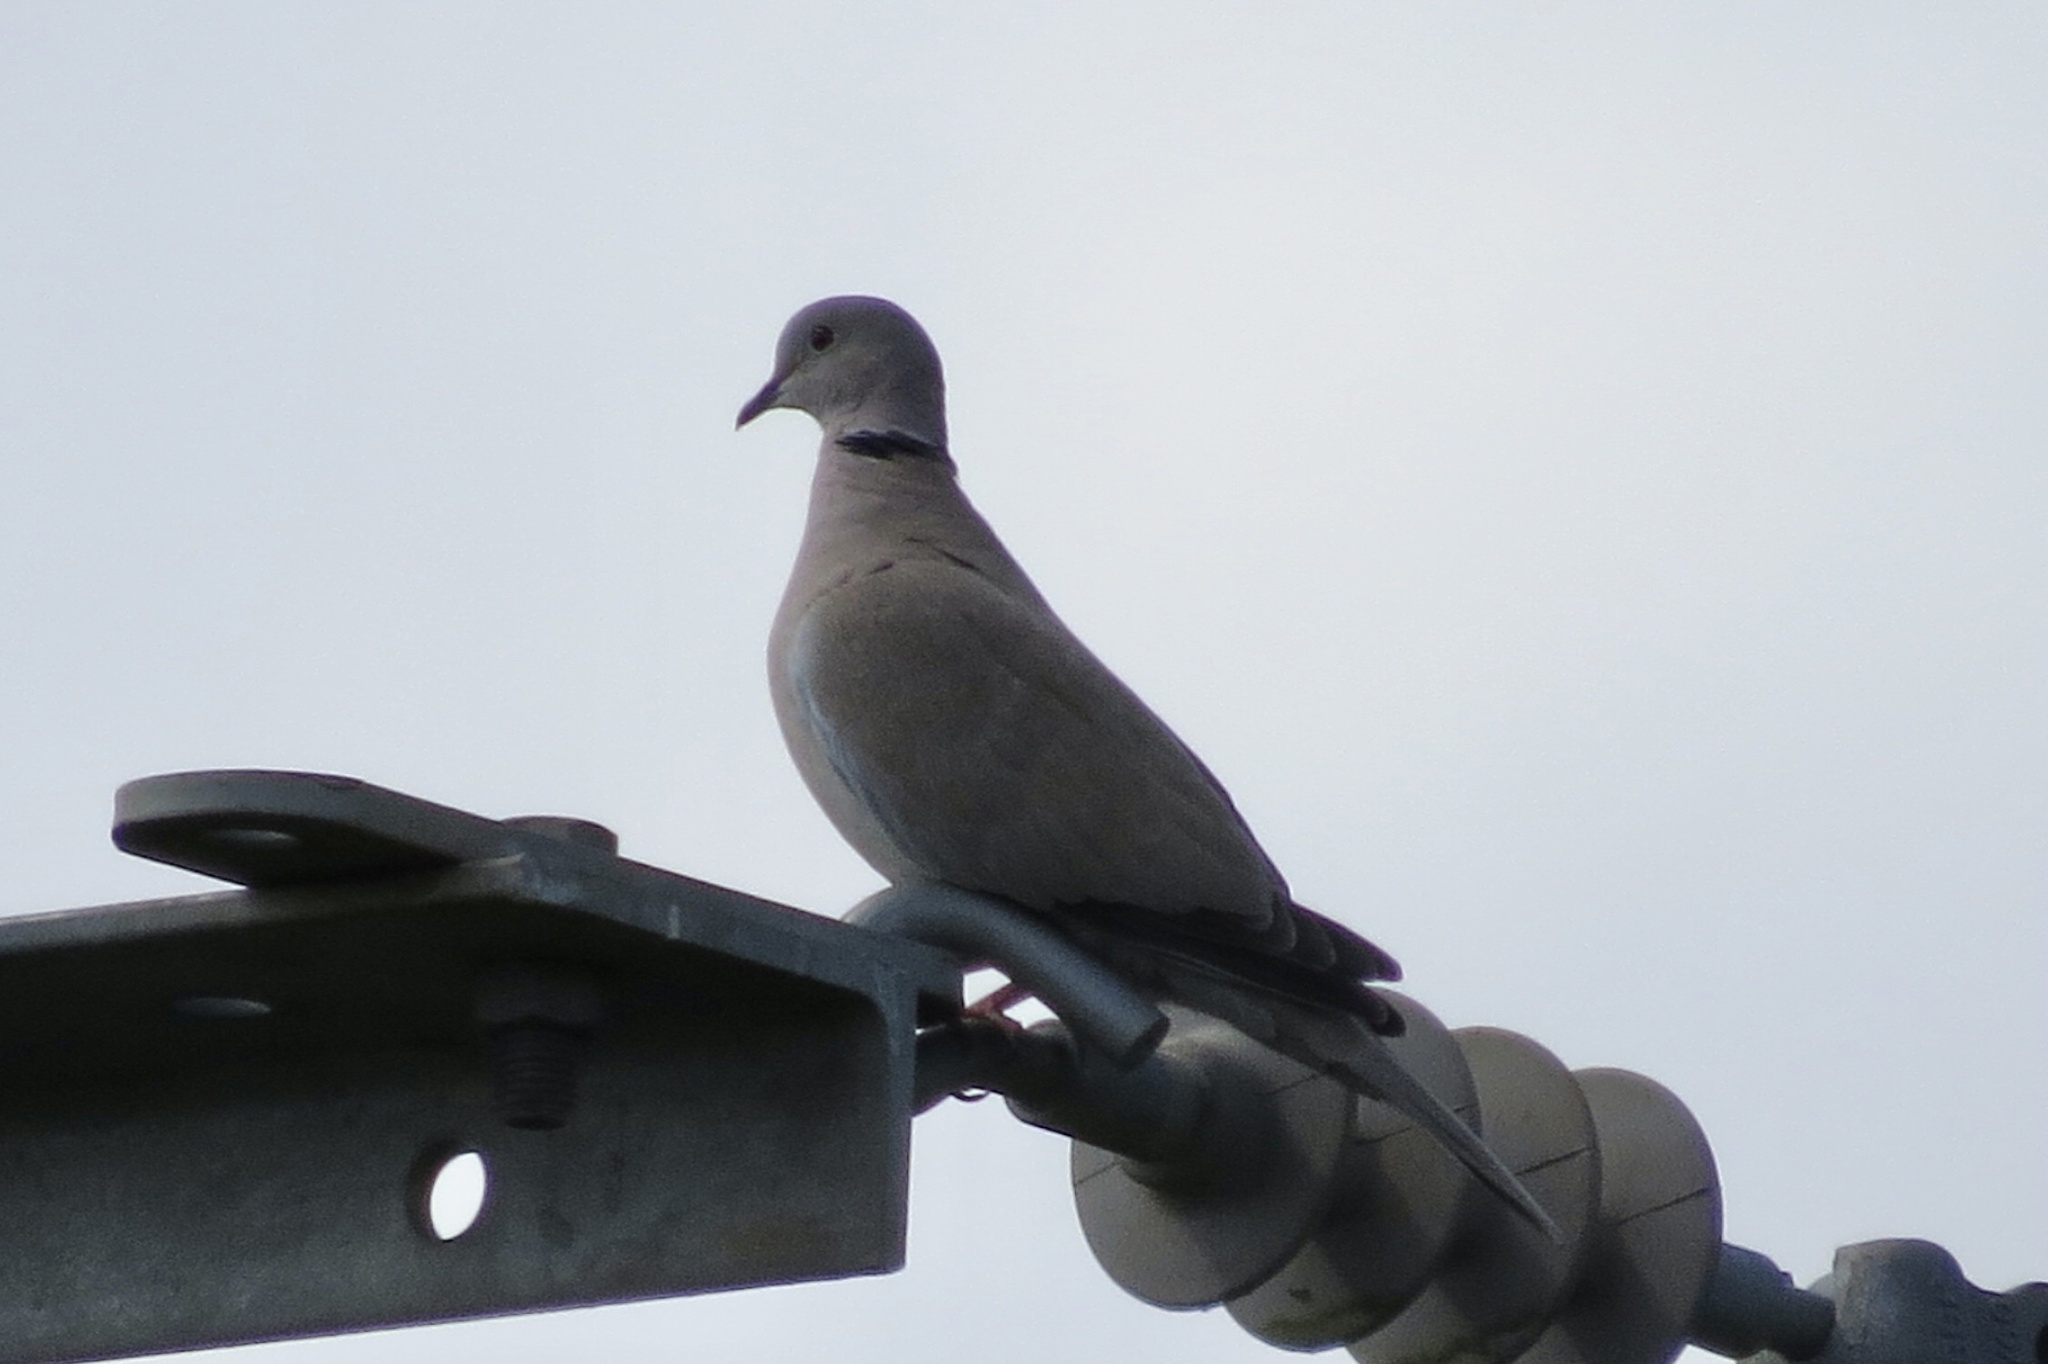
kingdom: Animalia
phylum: Chordata
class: Aves
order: Columbiformes
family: Columbidae
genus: Streptopelia
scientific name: Streptopelia decaocto
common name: Eurasian collared dove
